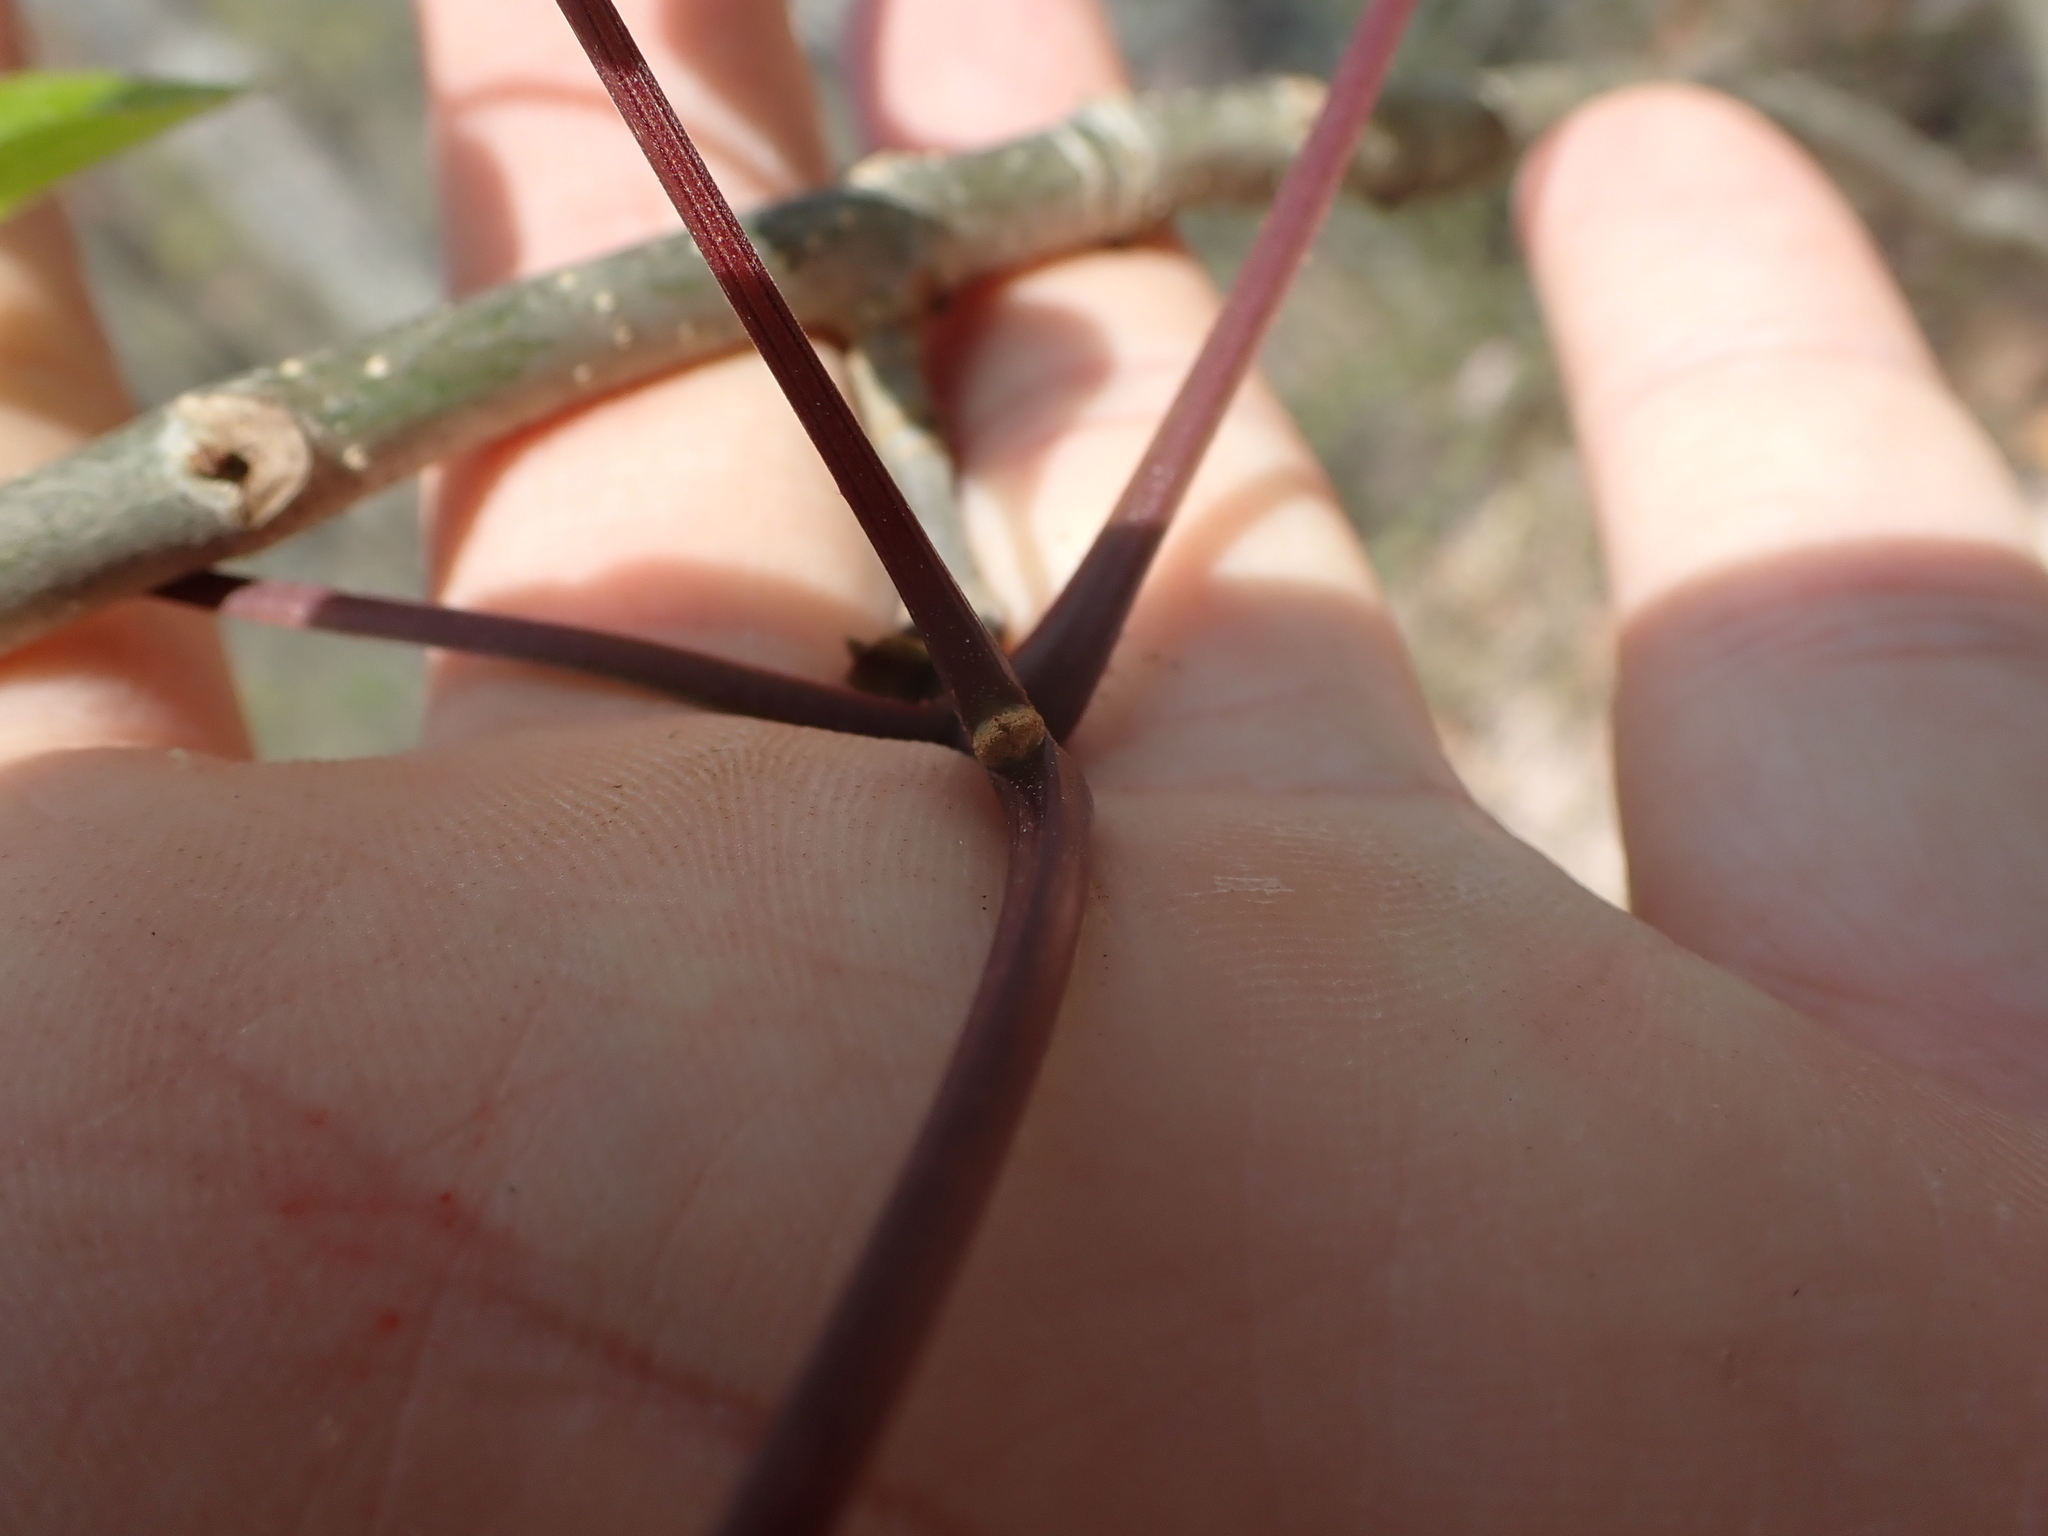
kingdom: Plantae
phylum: Tracheophyta
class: Magnoliopsida
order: Lamiales
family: Oleaceae
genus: Fraxinus
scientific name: Fraxinus quadrangulata
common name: Blue ash
